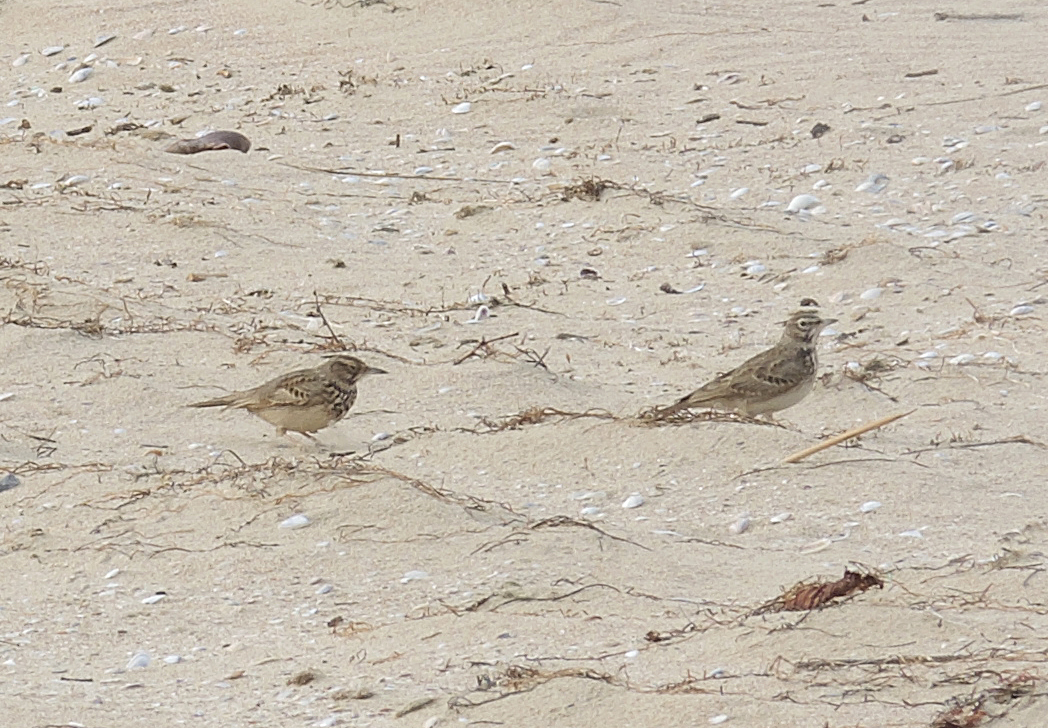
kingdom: Animalia
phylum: Chordata
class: Aves
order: Passeriformes
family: Alaudidae
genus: Galerida
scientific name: Galerida cristata
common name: Crested lark
